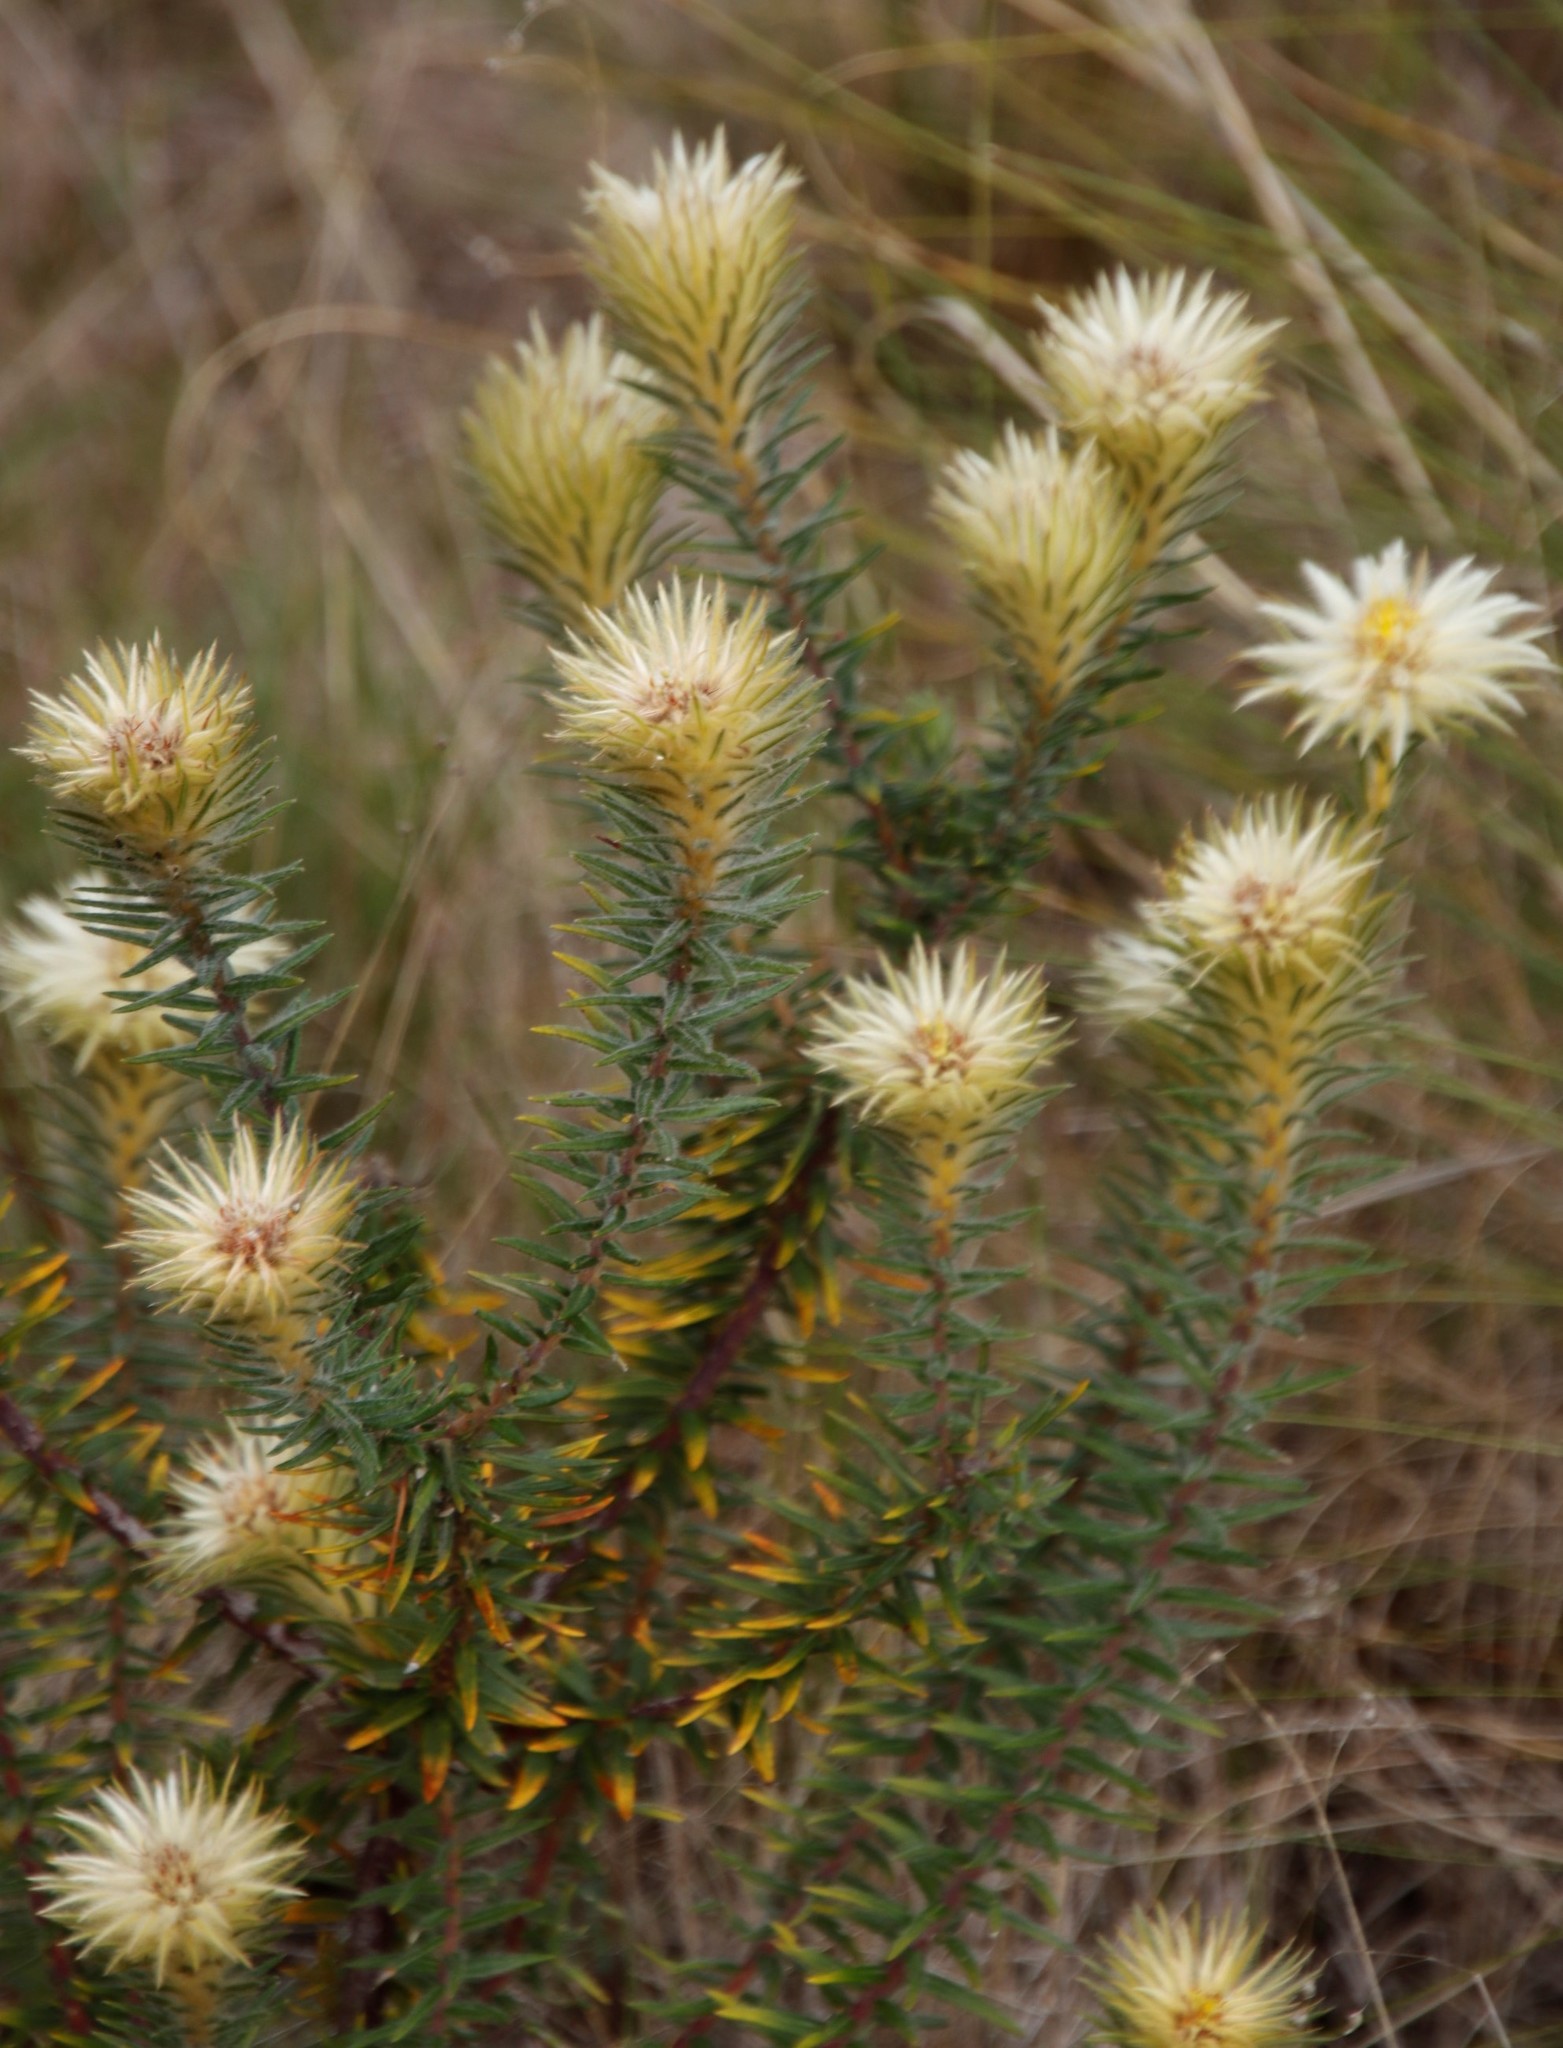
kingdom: Plantae
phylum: Tracheophyta
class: Magnoliopsida
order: Rosales
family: Rhamnaceae
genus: Phylica
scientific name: Phylica pubescens
